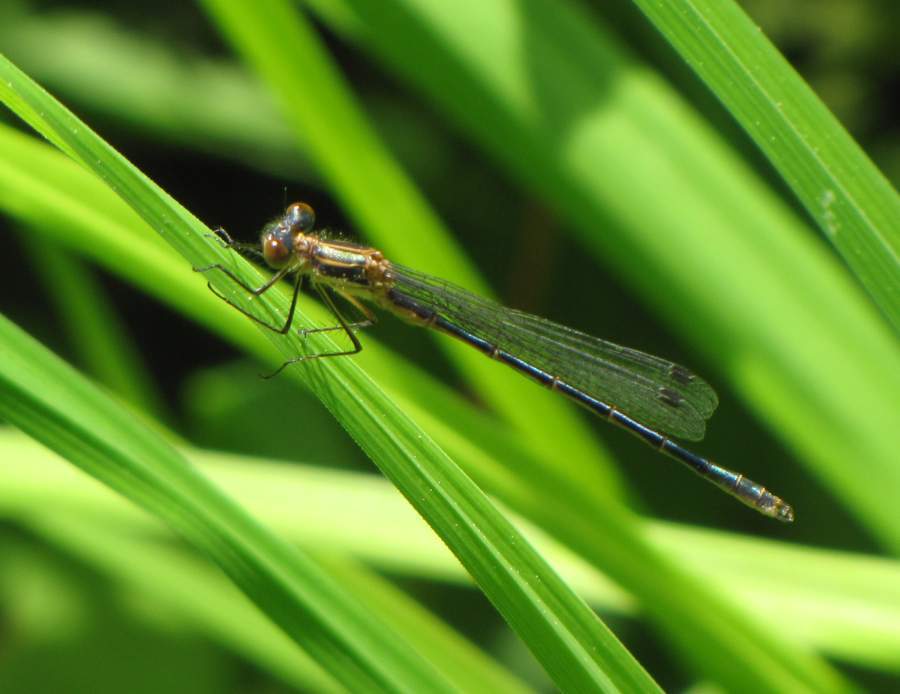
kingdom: Animalia
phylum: Arthropoda
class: Insecta
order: Odonata
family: Lestidae
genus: Lestes
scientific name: Lestes dryas
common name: Scarce emerald damselfly
